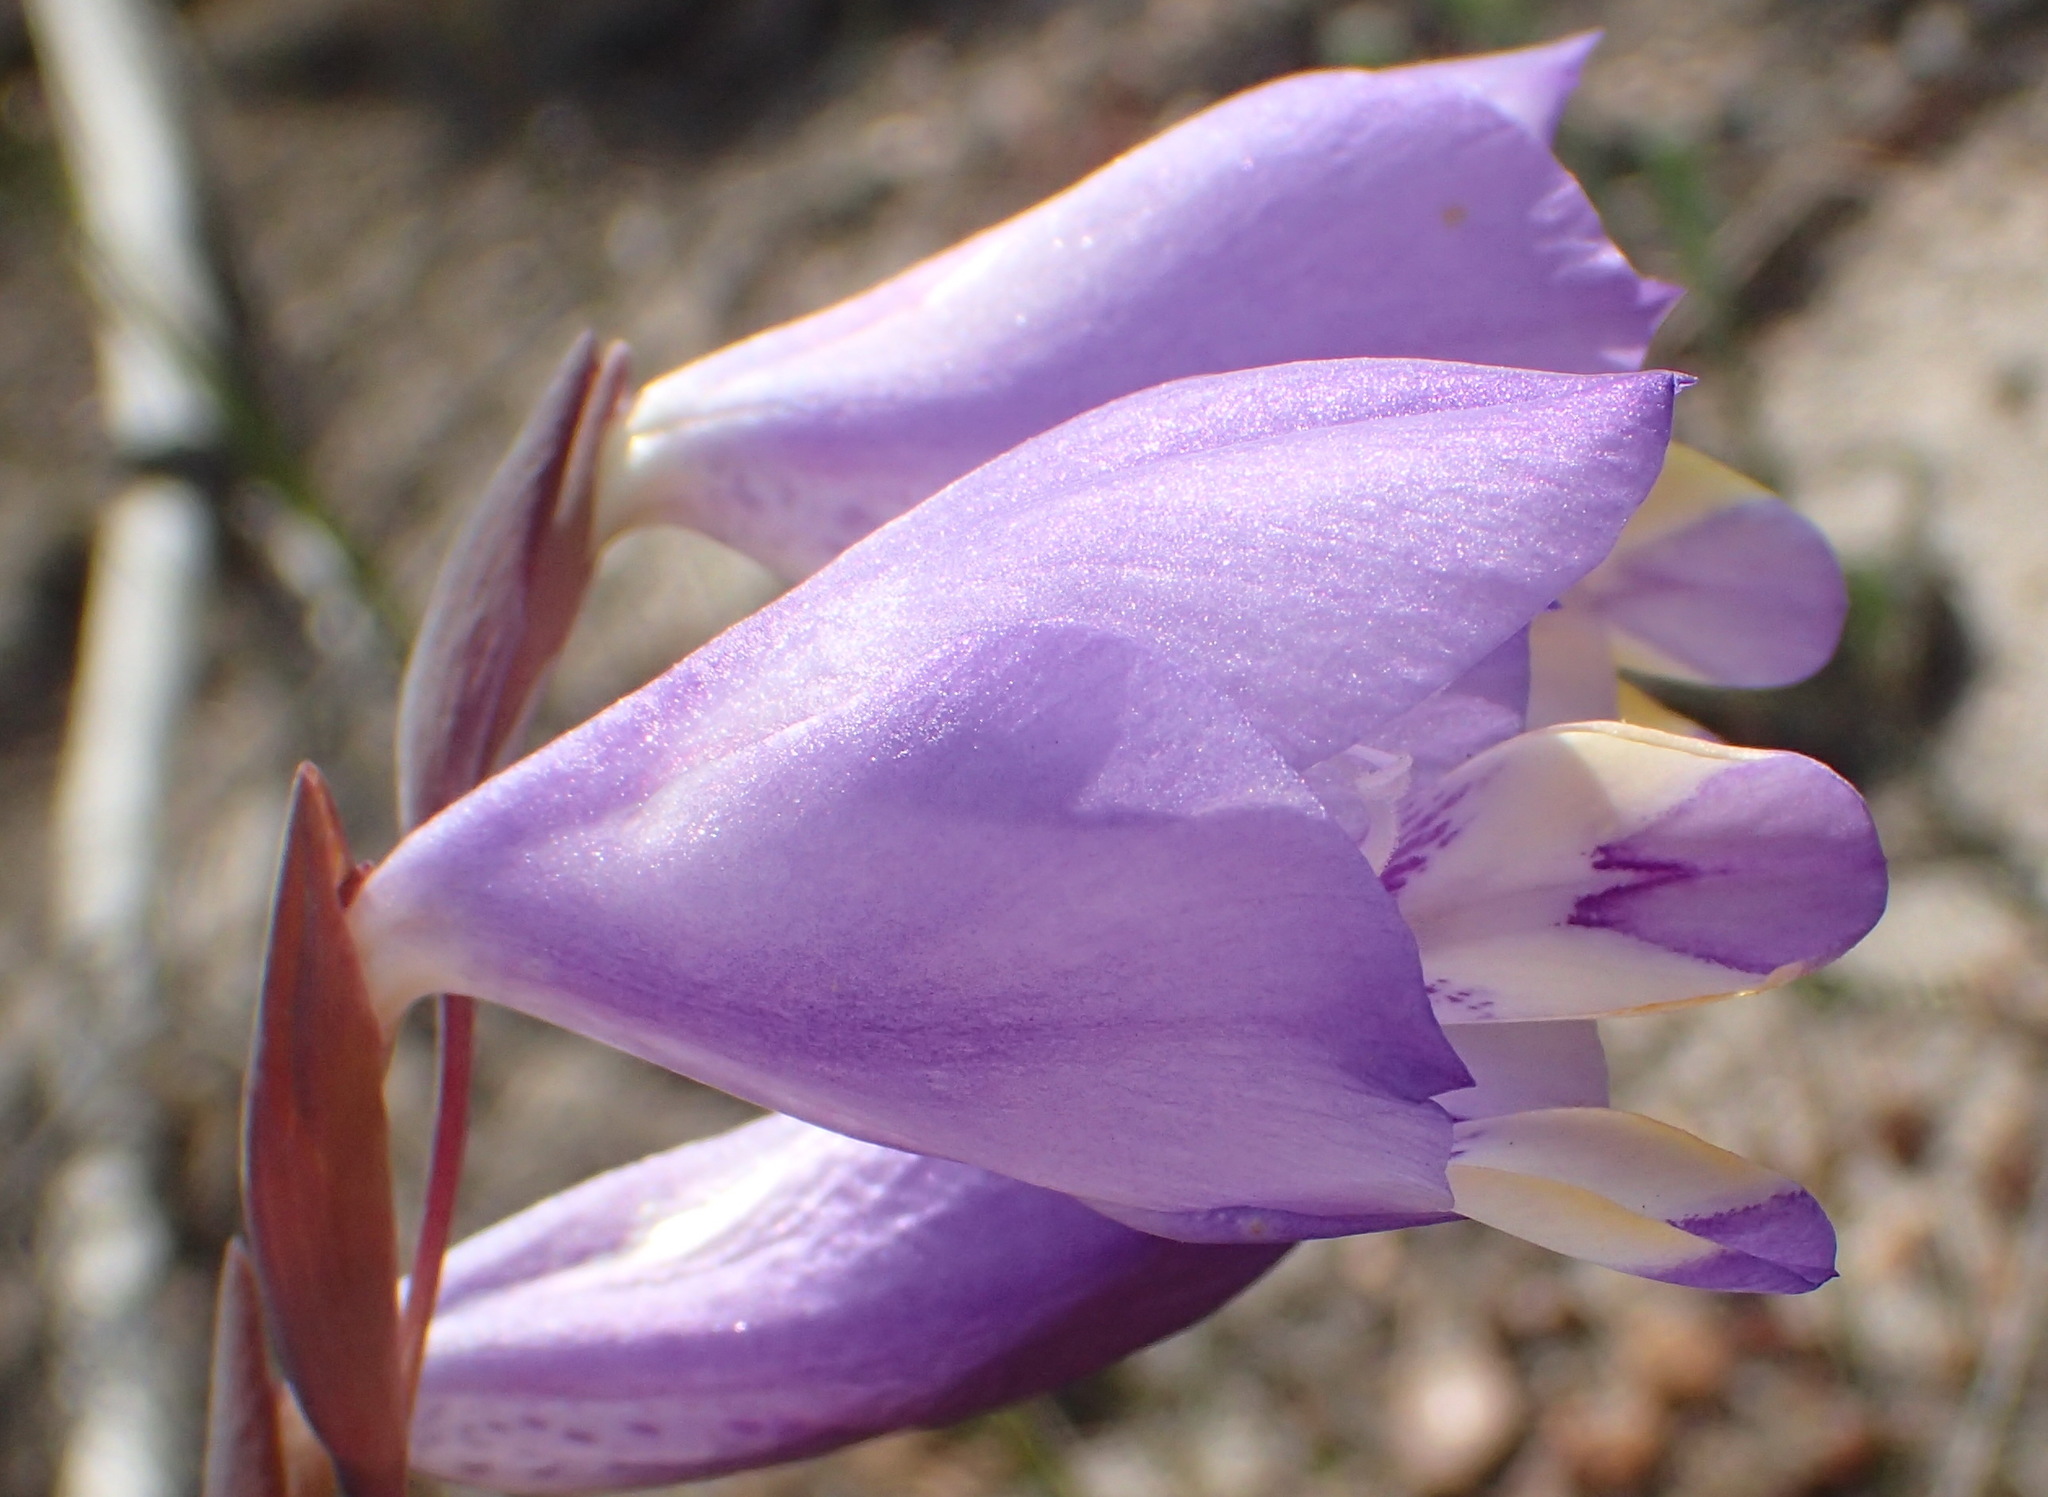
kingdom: Plantae
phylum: Tracheophyta
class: Liliopsida
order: Asparagales
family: Iridaceae
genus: Gladiolus
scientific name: Gladiolus rogersii
